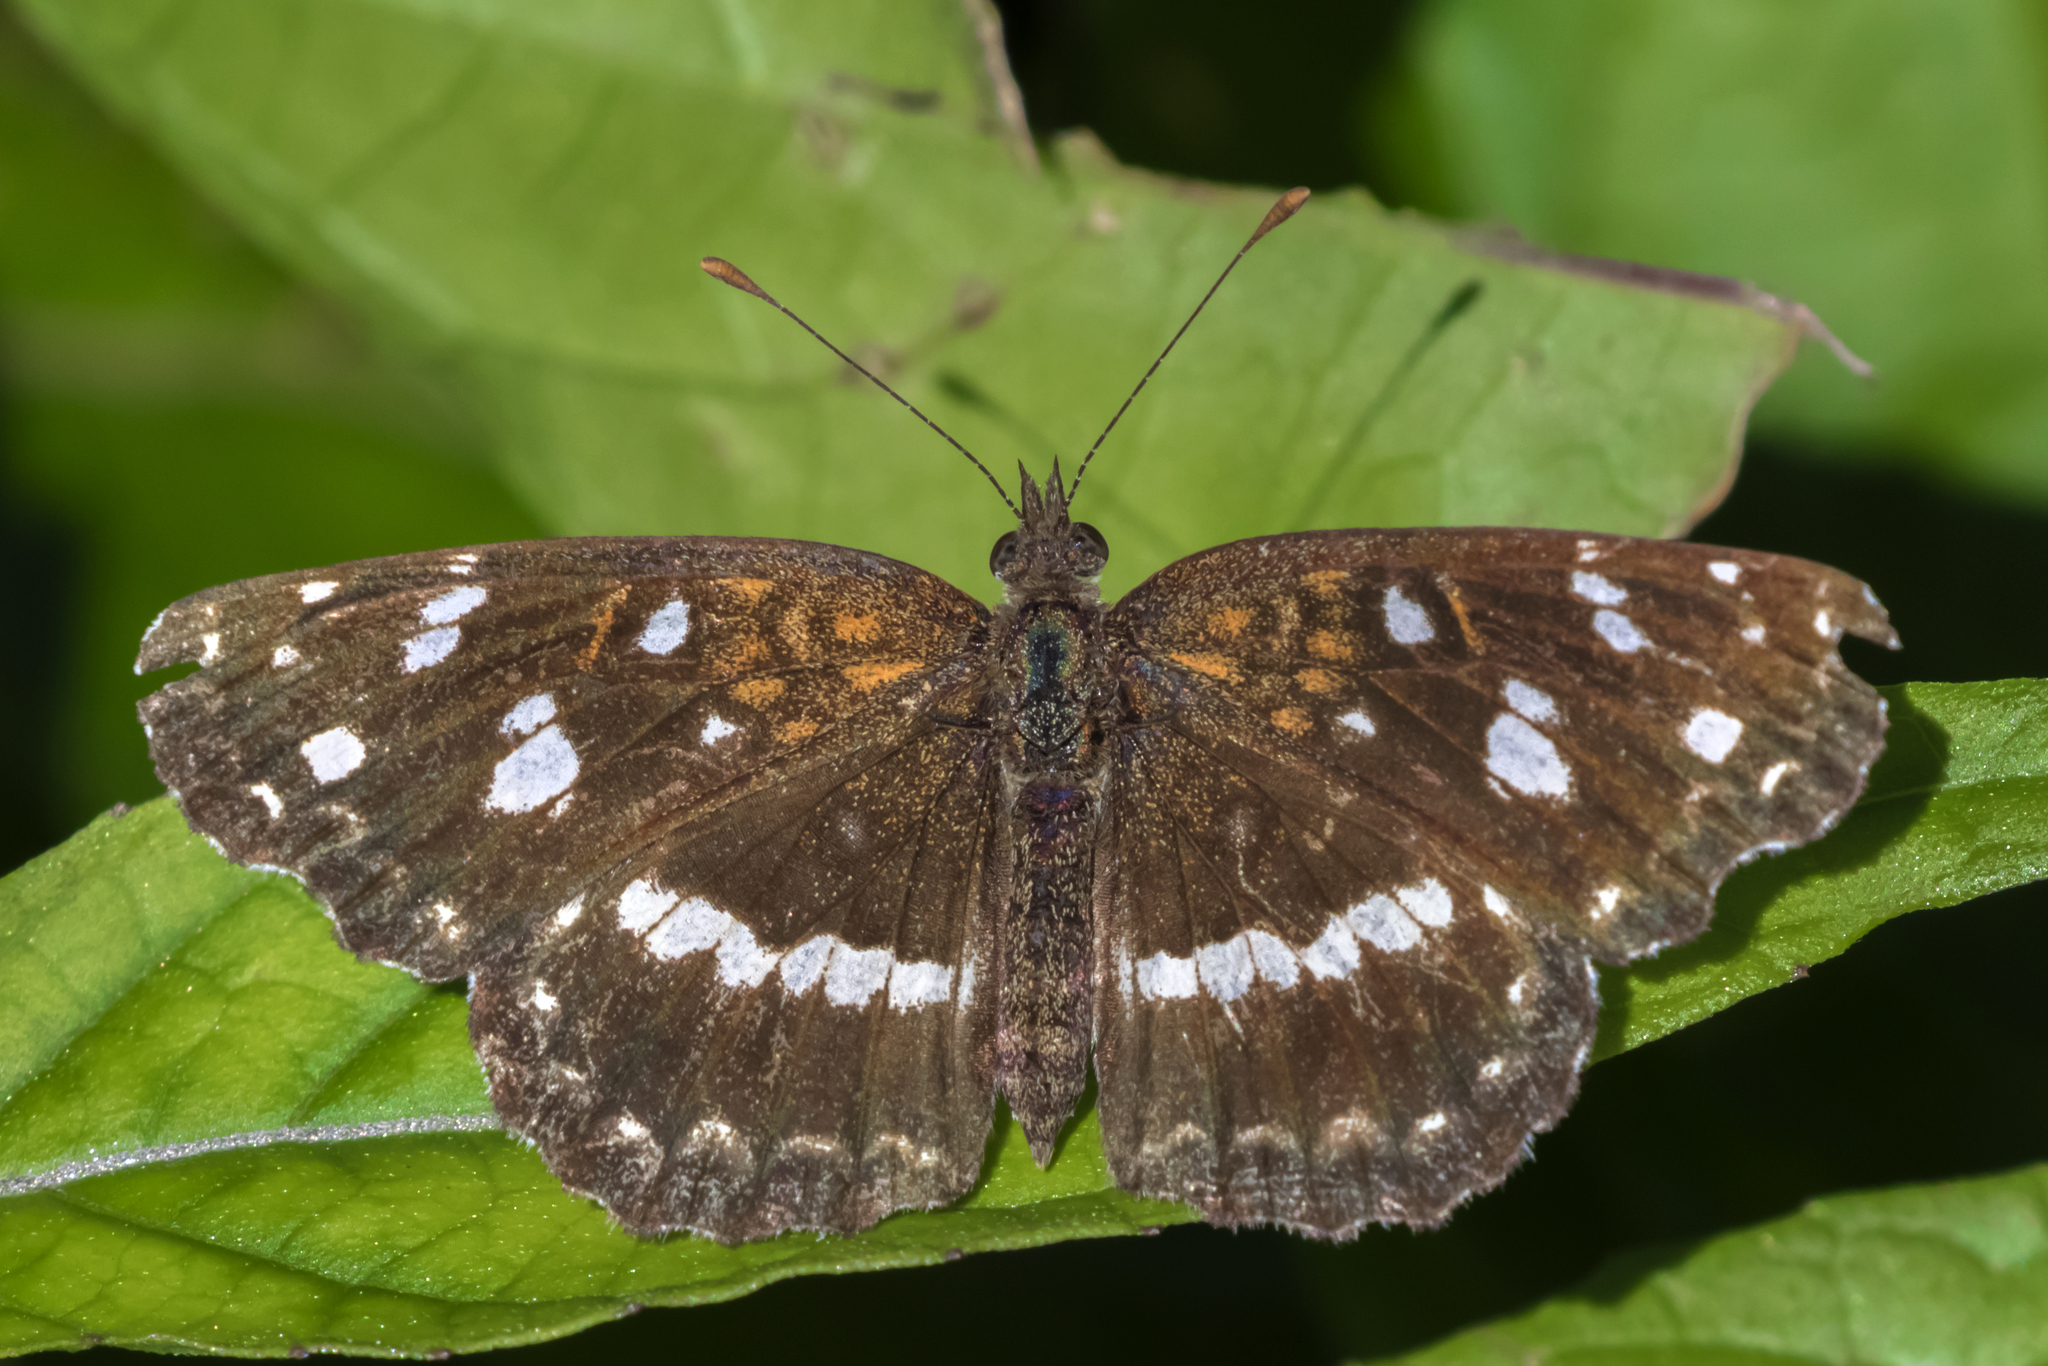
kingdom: Animalia
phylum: Arthropoda
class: Insecta
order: Lepidoptera
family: Nymphalidae
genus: Ortilia
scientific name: Ortilia ithra
